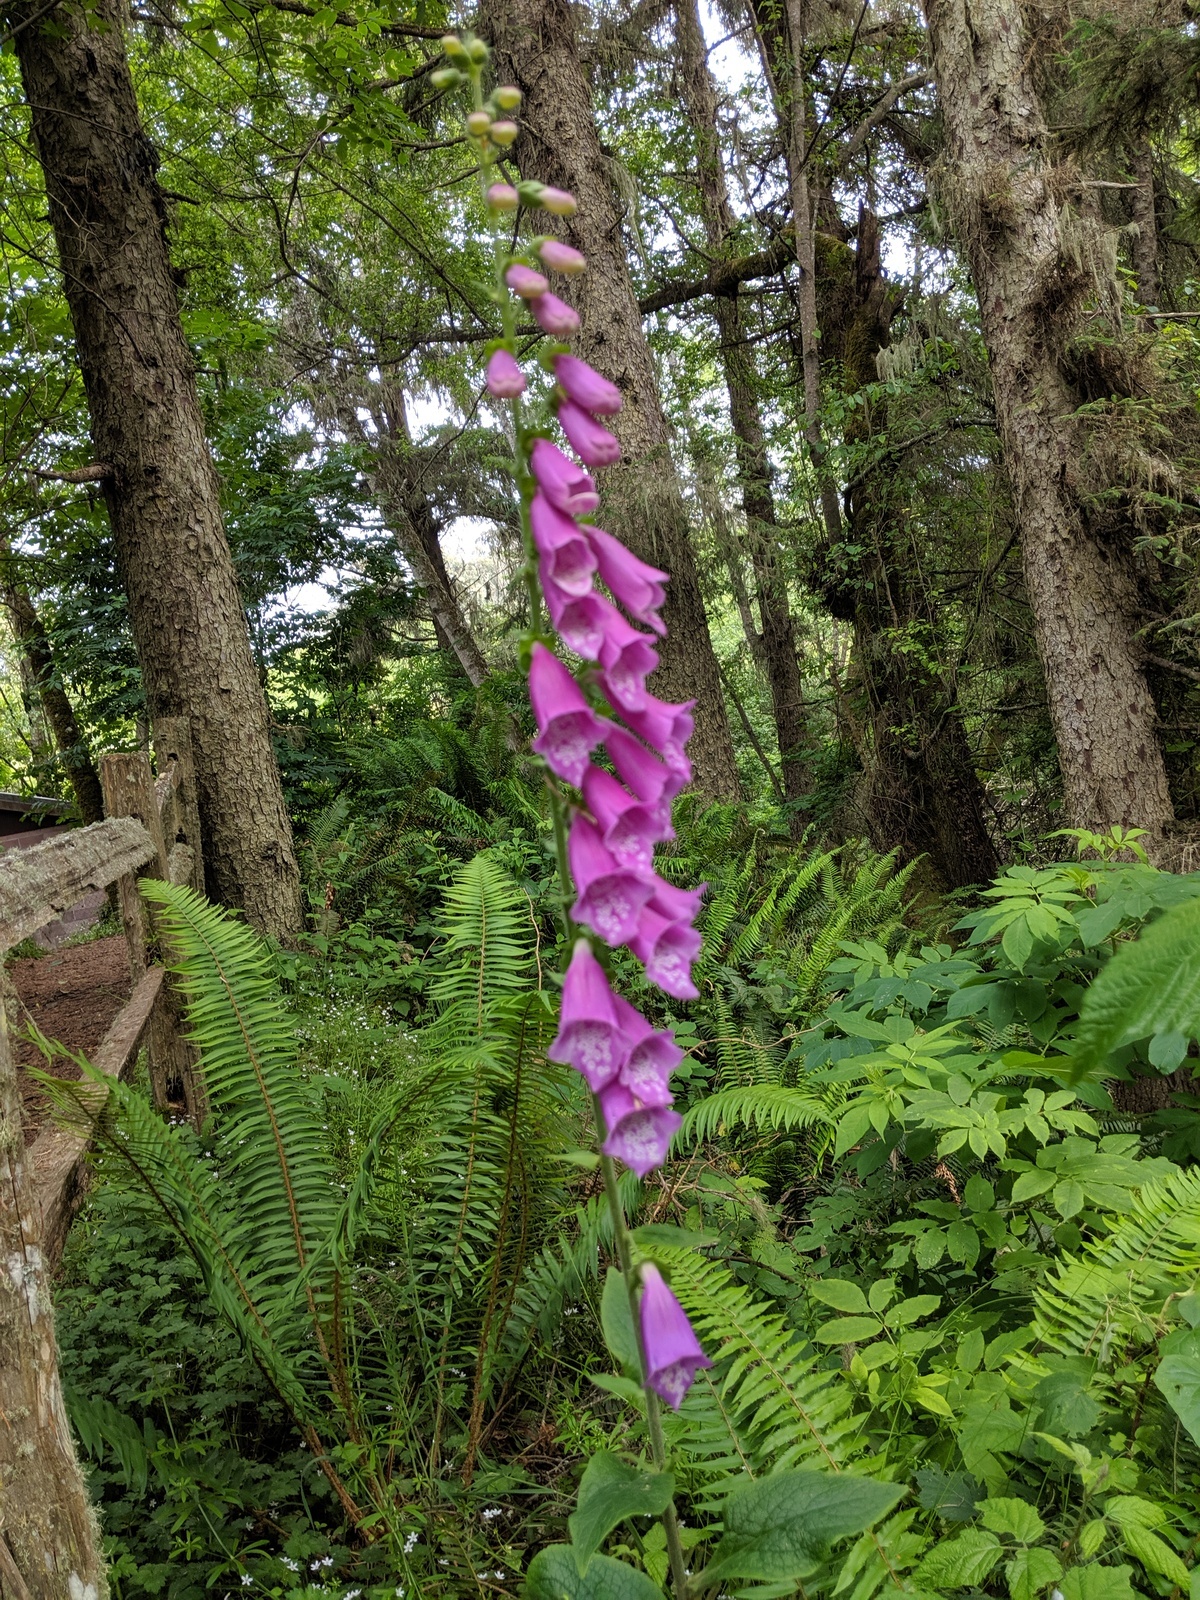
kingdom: Plantae
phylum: Tracheophyta
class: Magnoliopsida
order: Lamiales
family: Plantaginaceae
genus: Digitalis
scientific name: Digitalis purpurea
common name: Foxglove
